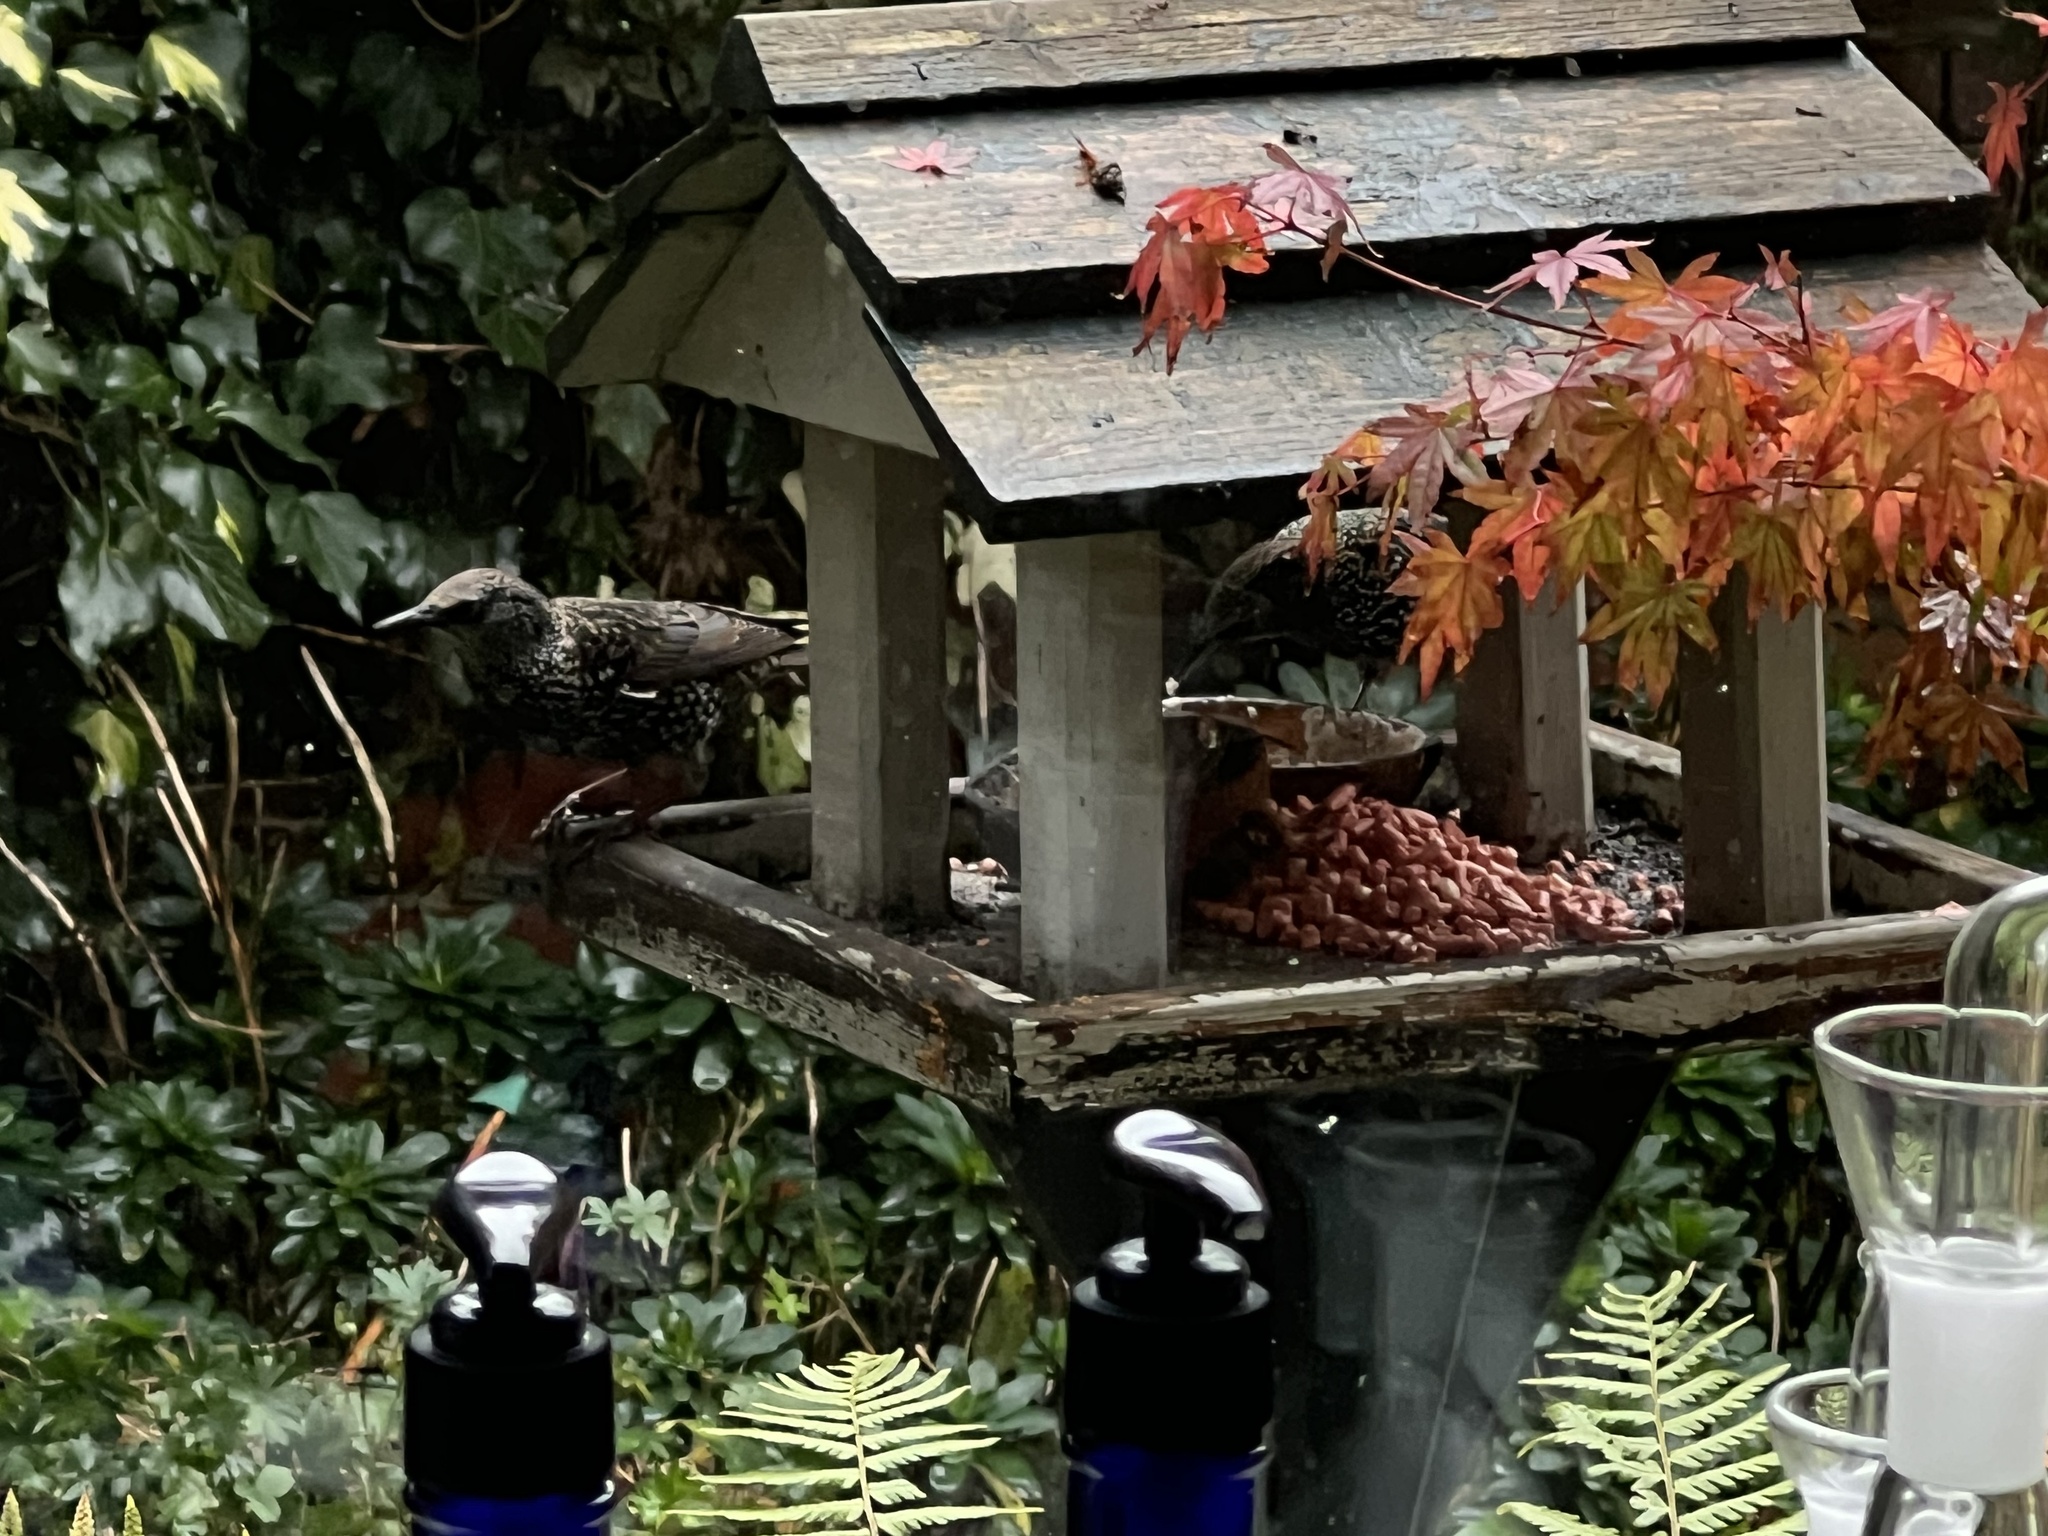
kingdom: Animalia
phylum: Chordata
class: Aves
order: Passeriformes
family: Sturnidae
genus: Sturnus
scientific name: Sturnus vulgaris
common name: Common starling
